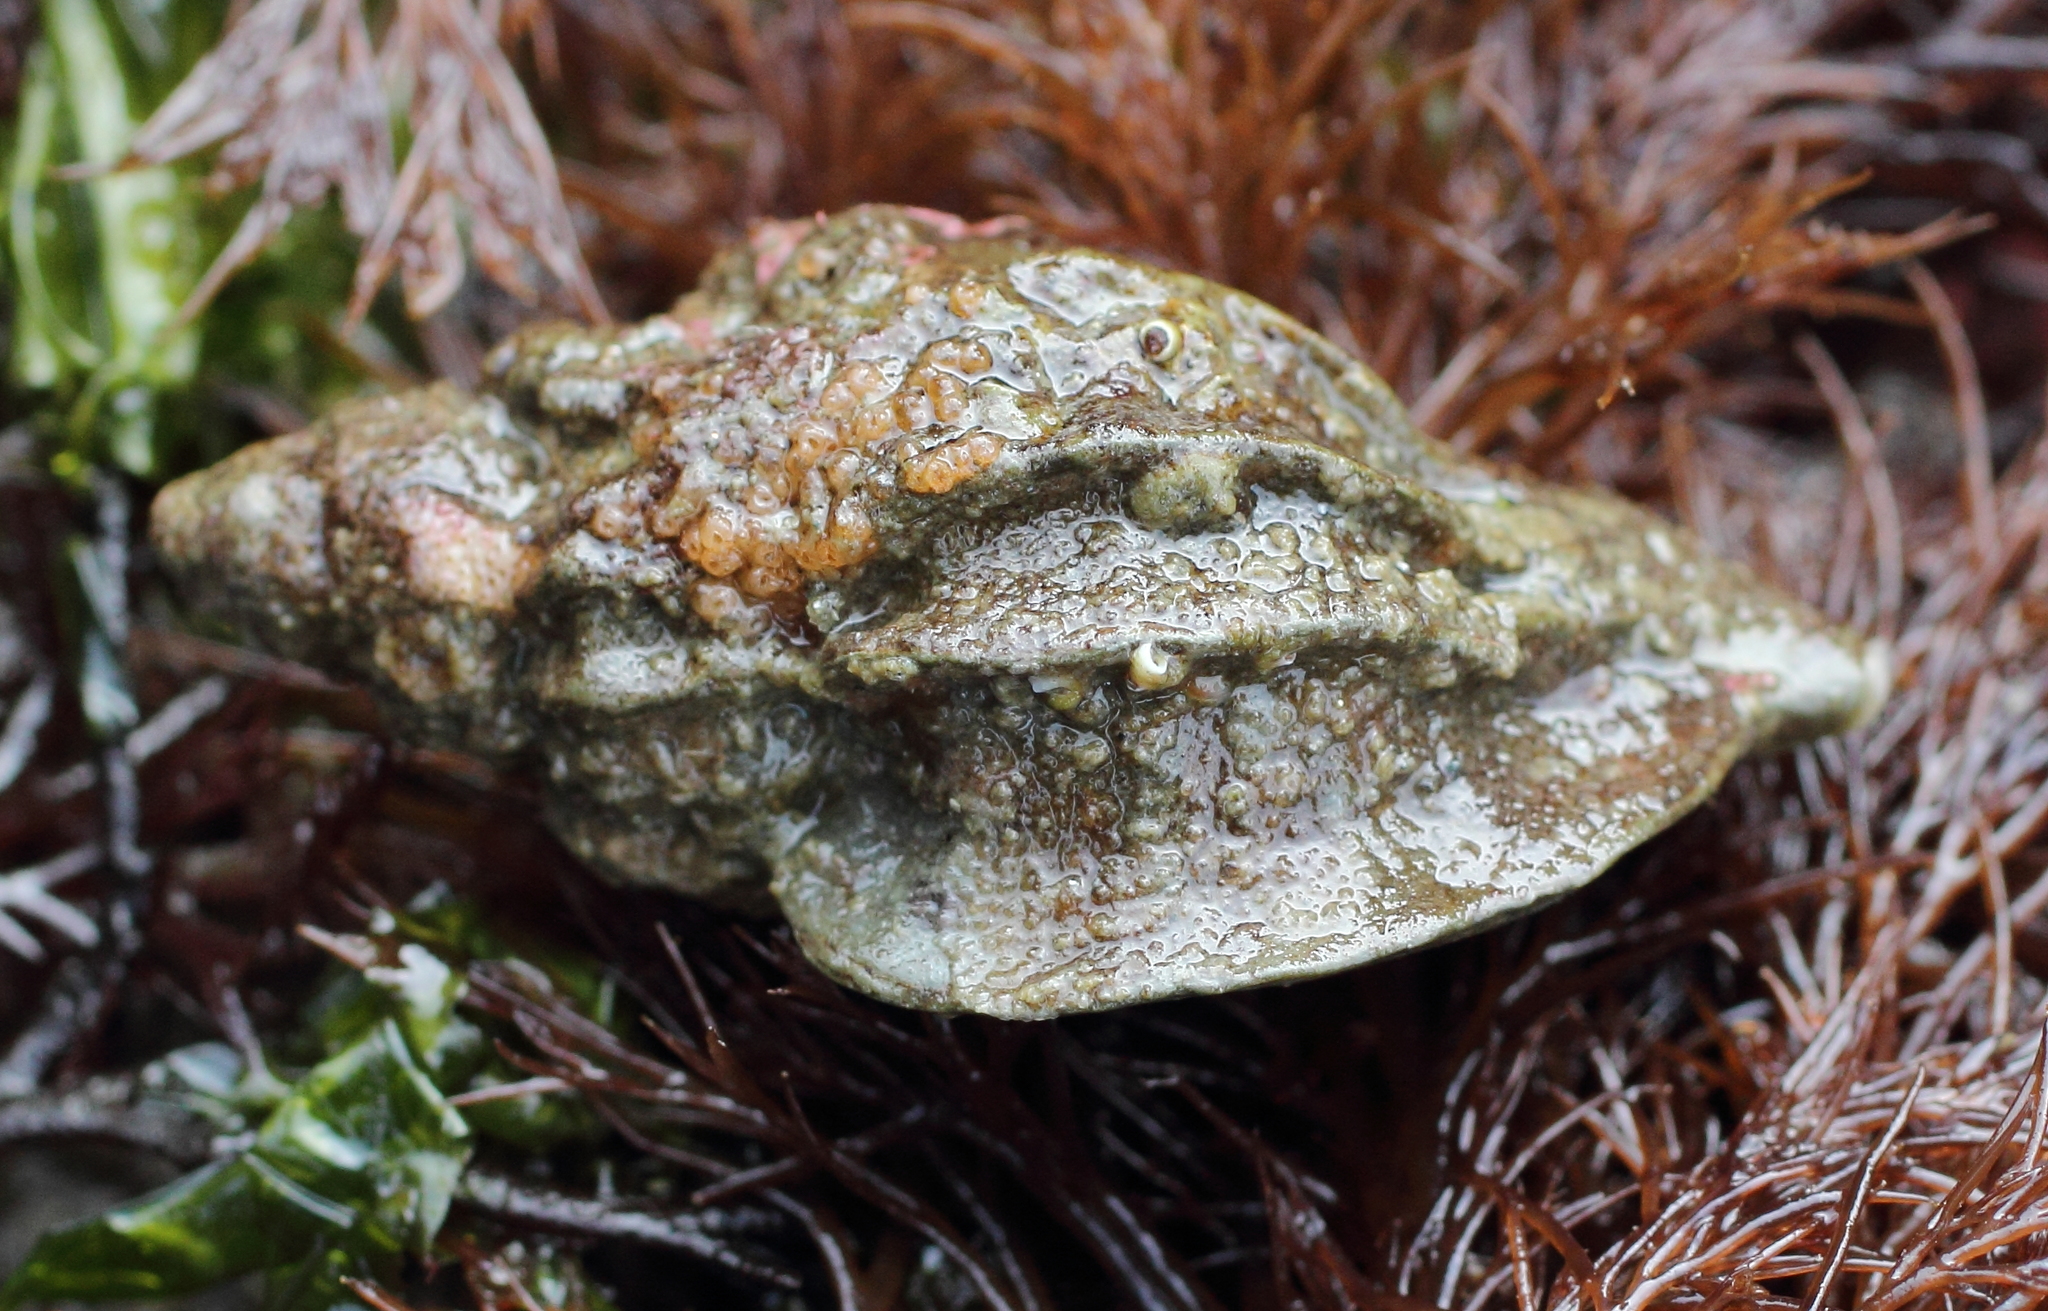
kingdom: Animalia
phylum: Mollusca
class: Gastropoda
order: Neogastropoda
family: Muricidae
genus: Scabrotrophon
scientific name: Scabrotrophon stuarti
